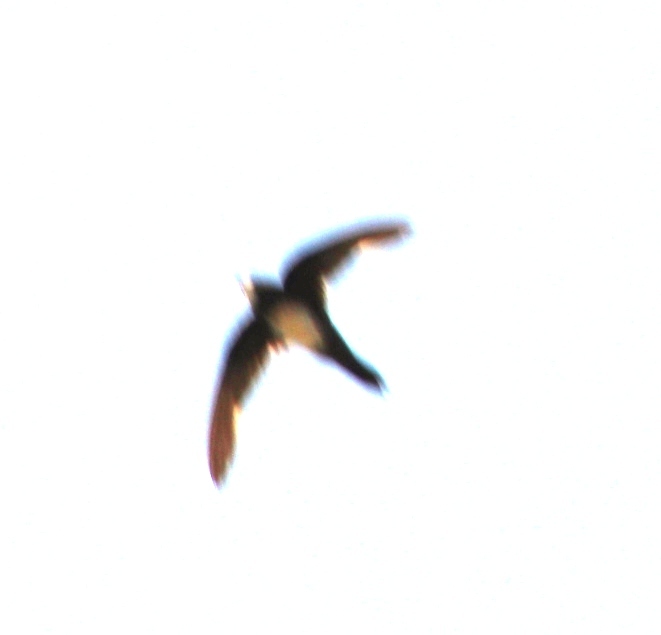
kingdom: Animalia
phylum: Chordata
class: Aves
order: Apodiformes
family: Apodidae
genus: Tachymarptis
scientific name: Tachymarptis melba
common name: Alpine swift
